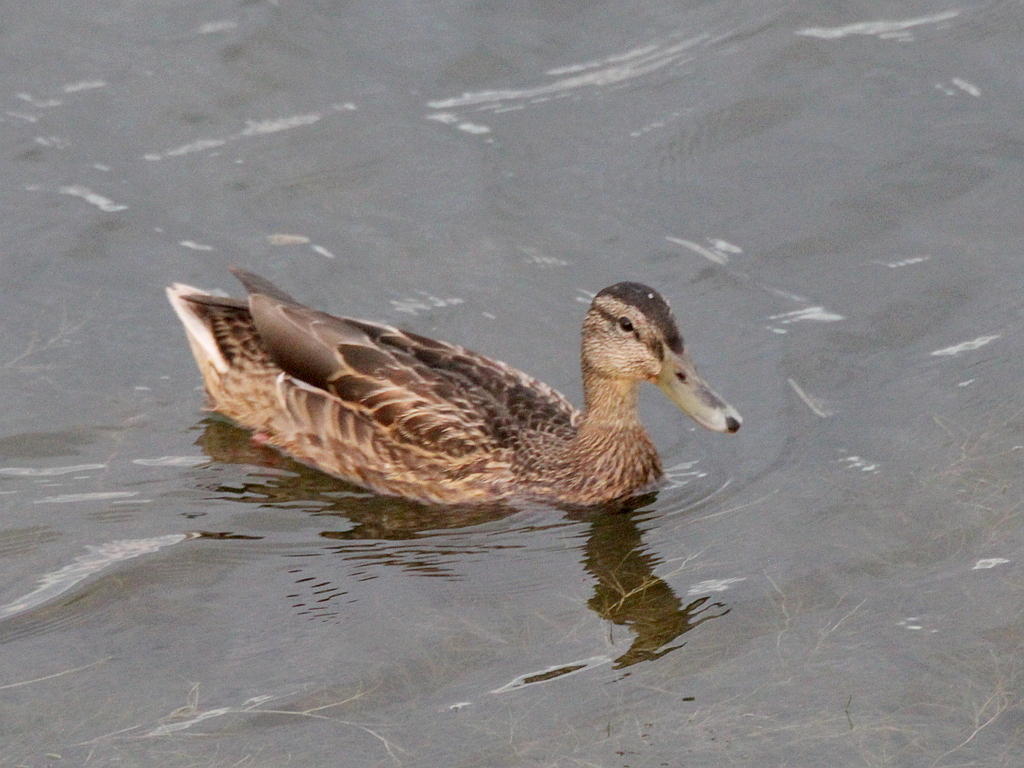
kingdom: Animalia
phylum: Chordata
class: Aves
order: Anseriformes
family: Anatidae
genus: Anas
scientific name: Anas platyrhynchos
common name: Mallard
